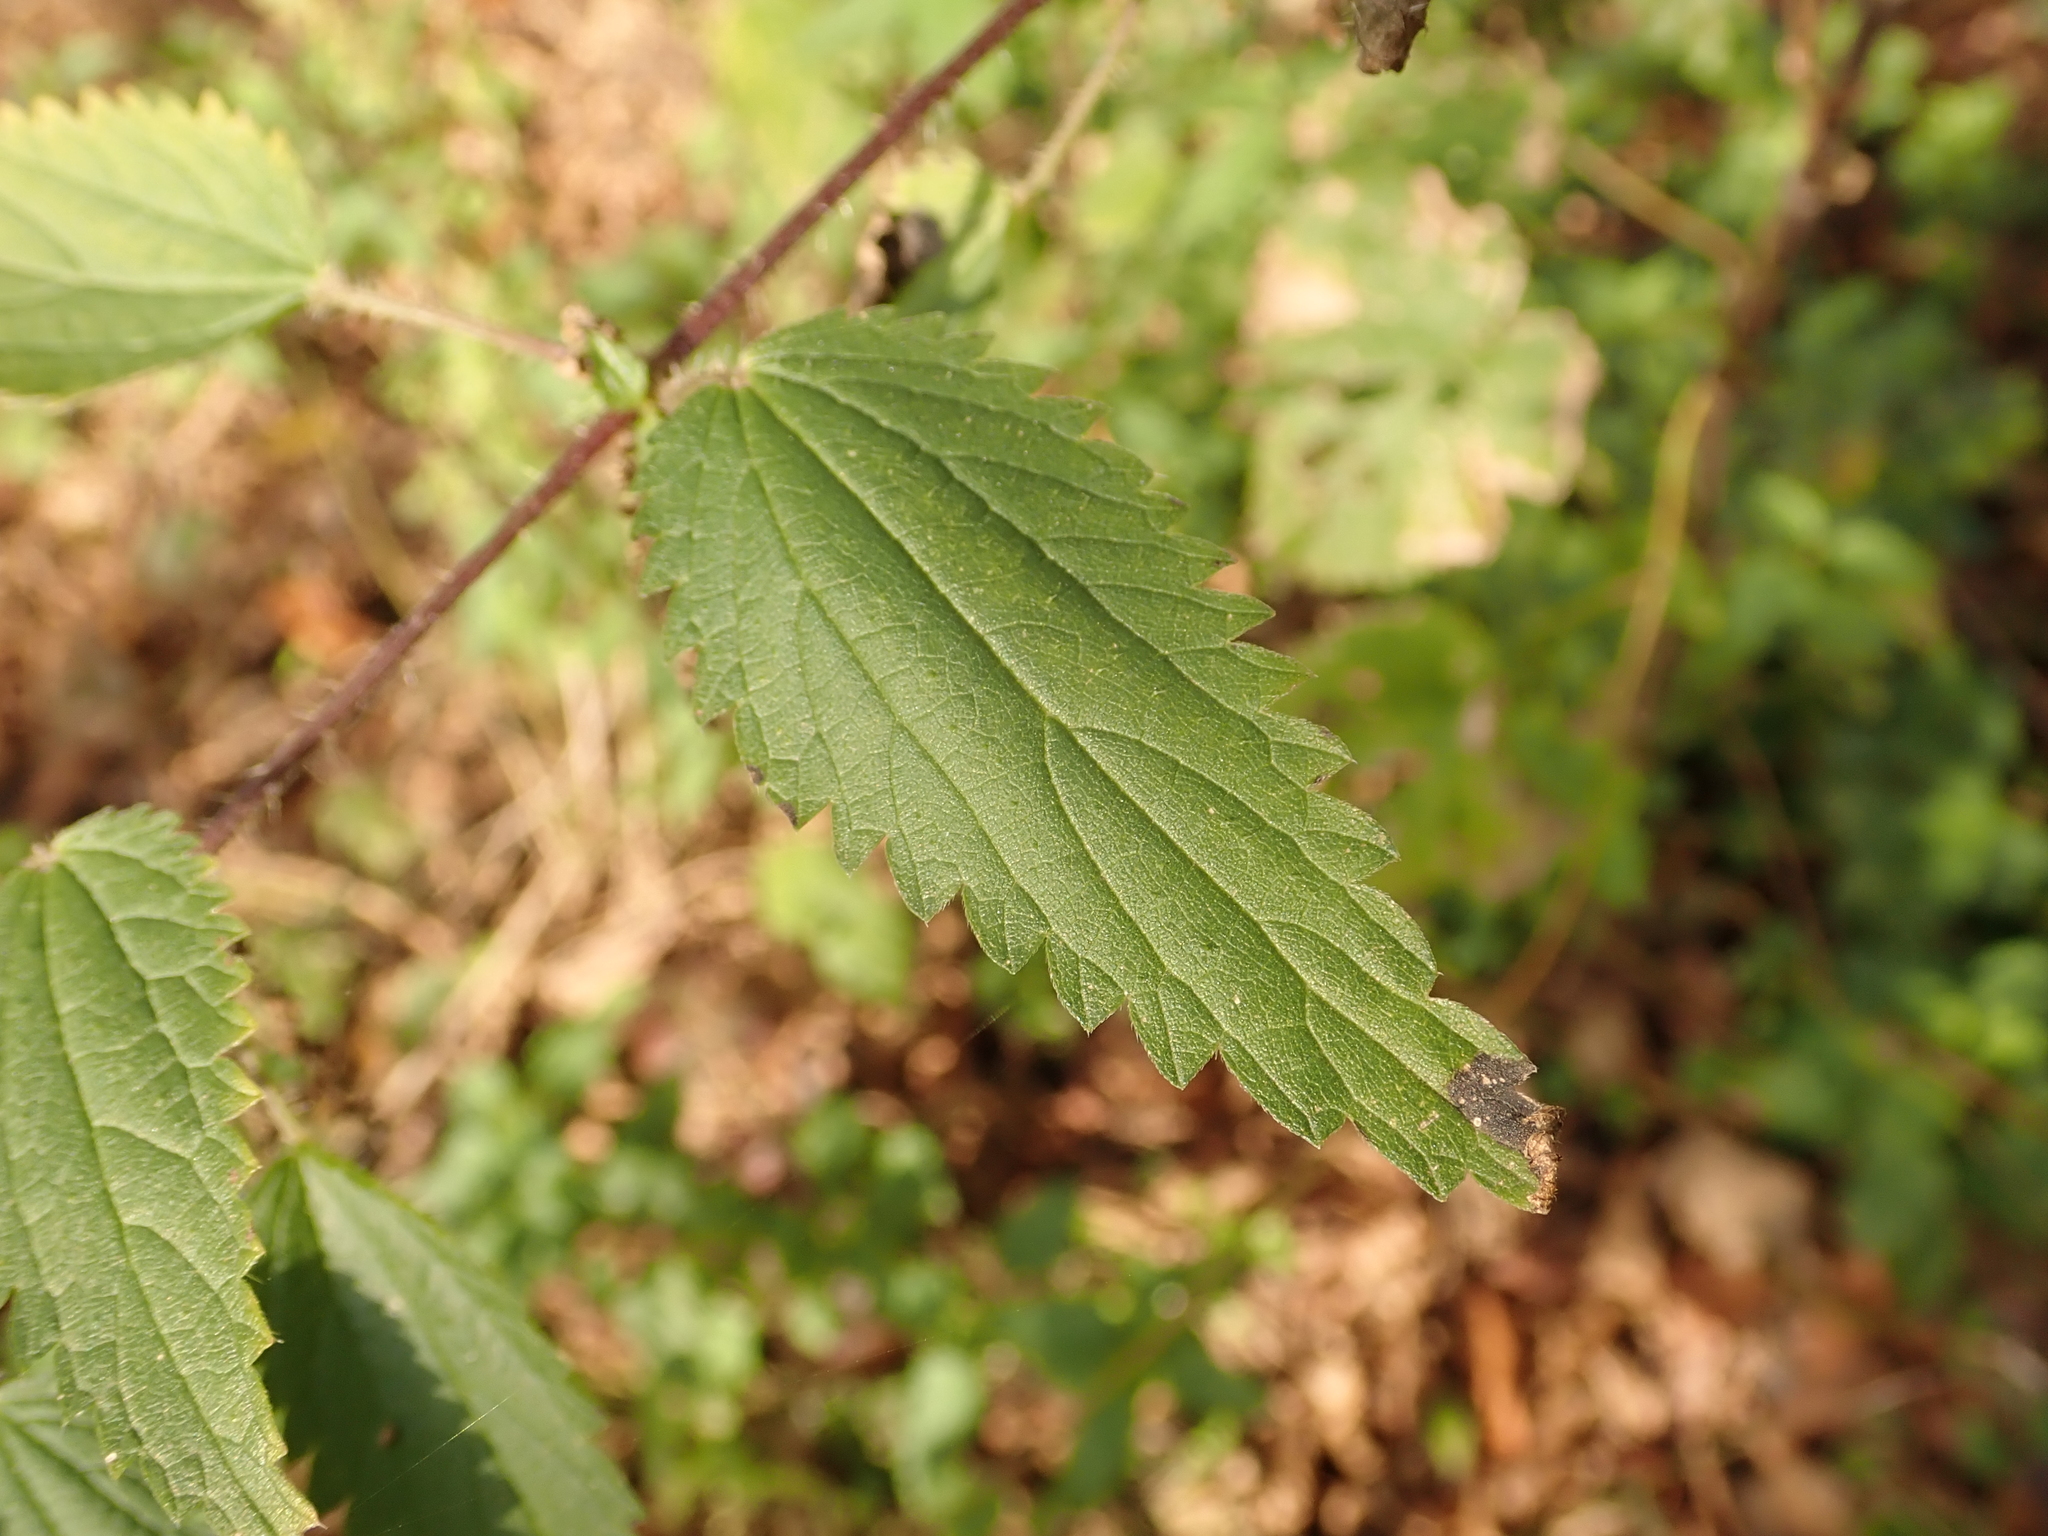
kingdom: Plantae
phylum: Tracheophyta
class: Magnoliopsida
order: Rosales
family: Urticaceae
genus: Urtica
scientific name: Urtica dioica
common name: Common nettle
